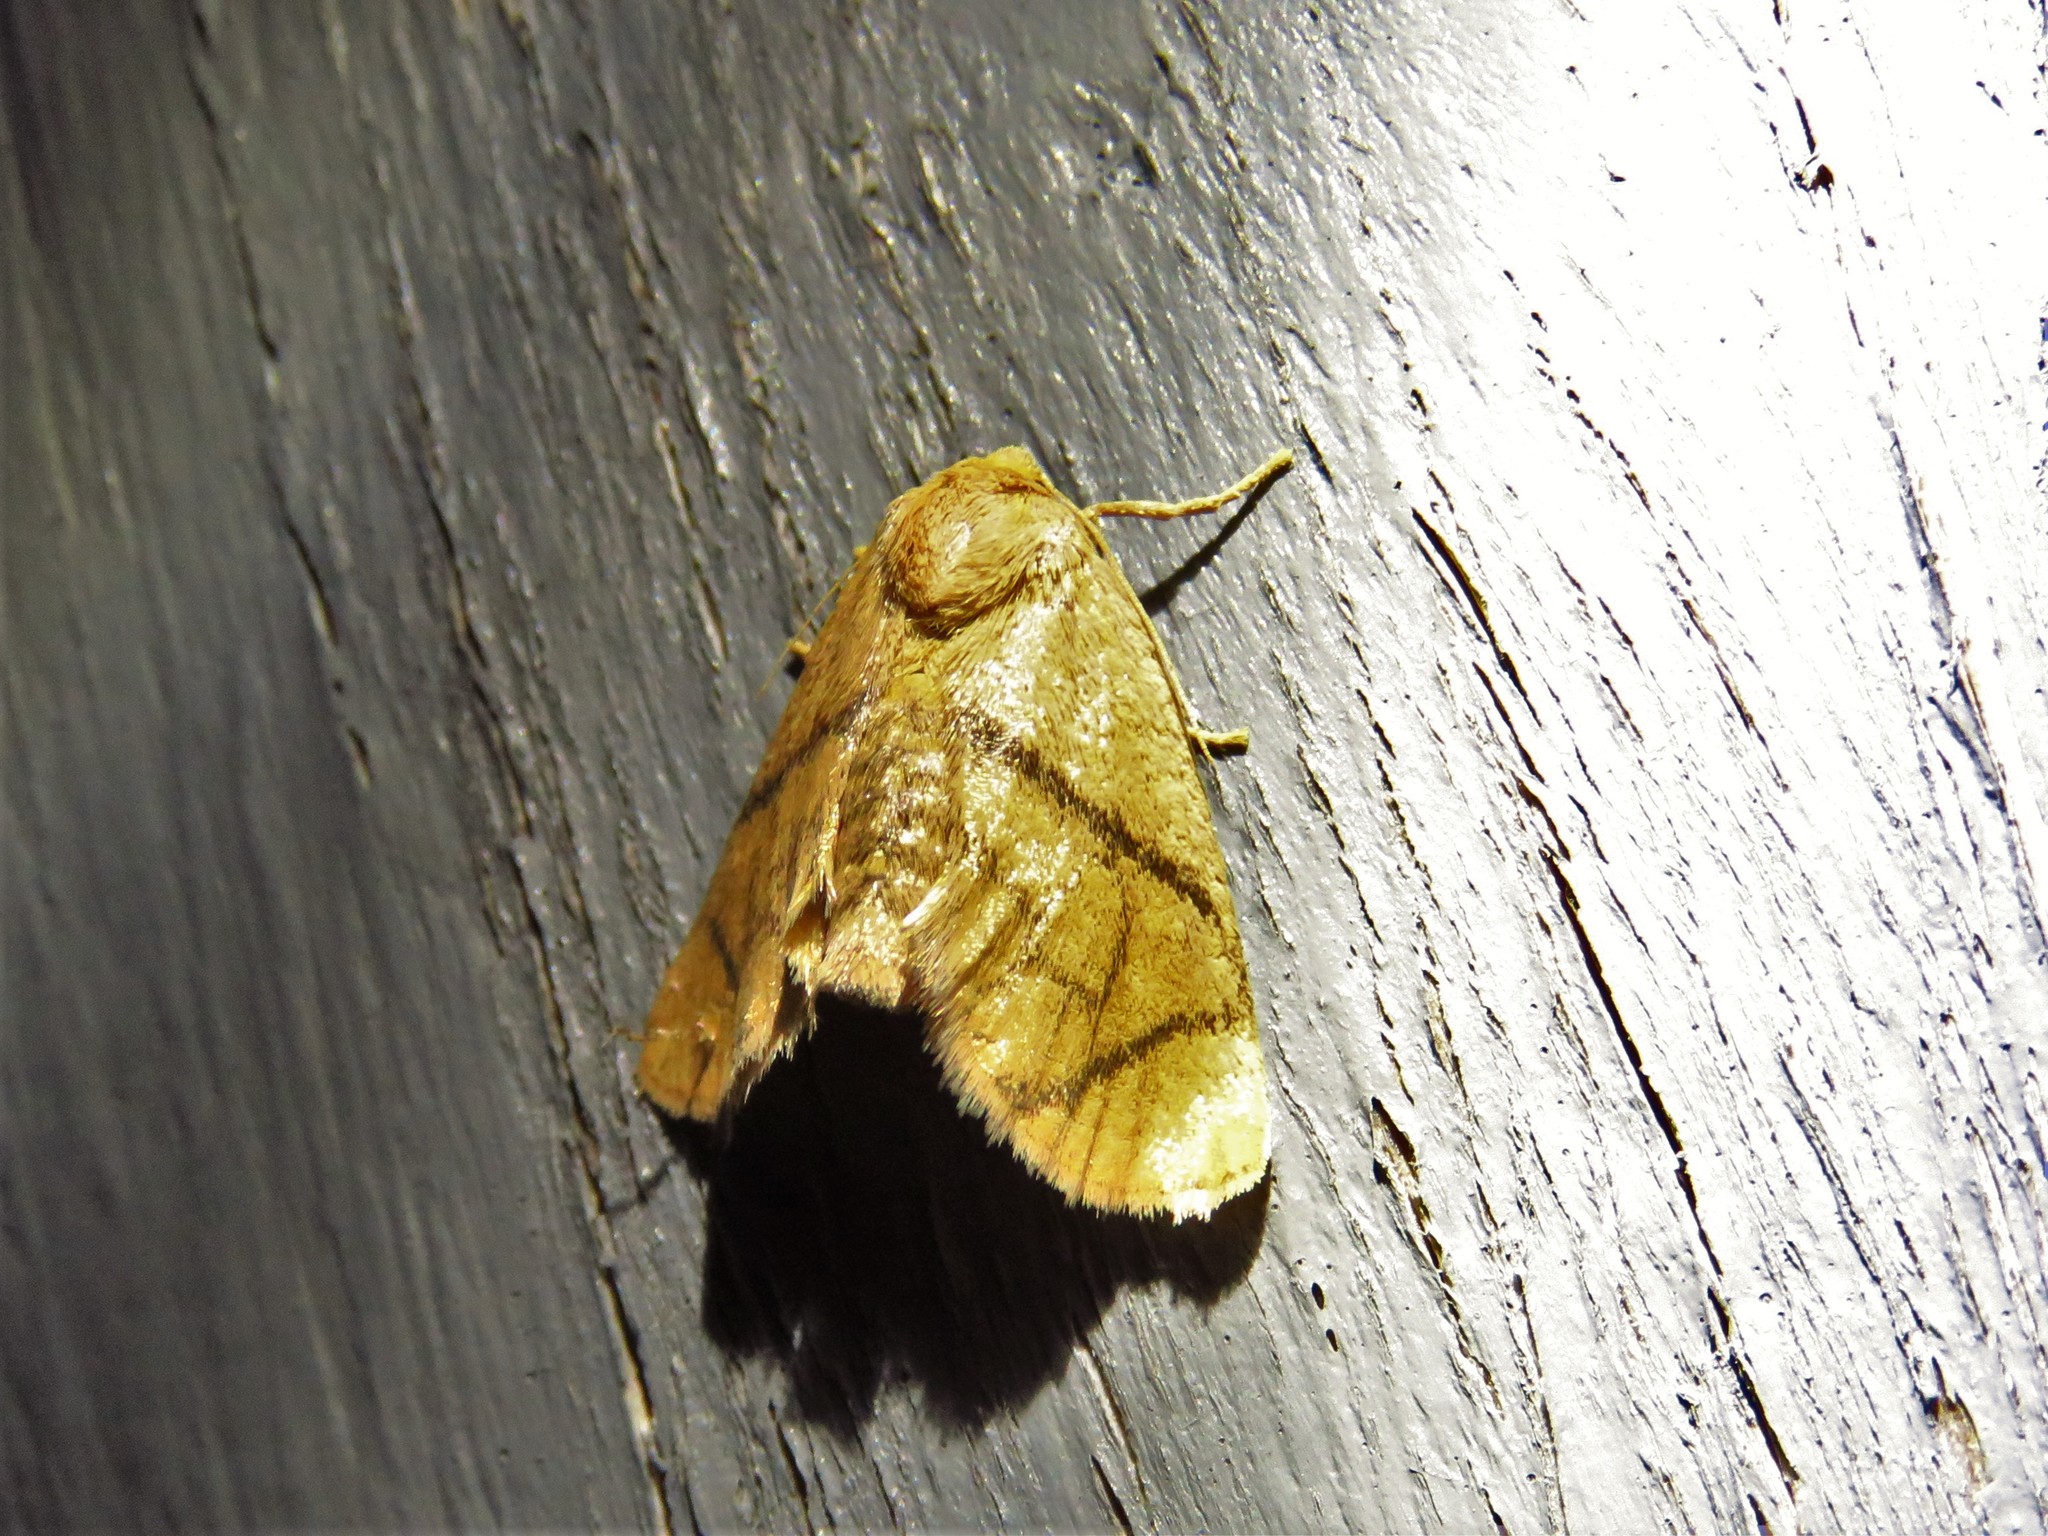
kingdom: Animalia
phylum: Arthropoda
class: Insecta
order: Lepidoptera
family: Limacodidae
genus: Apoda
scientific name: Apoda y-inversa
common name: Yellow-collared slug moth
